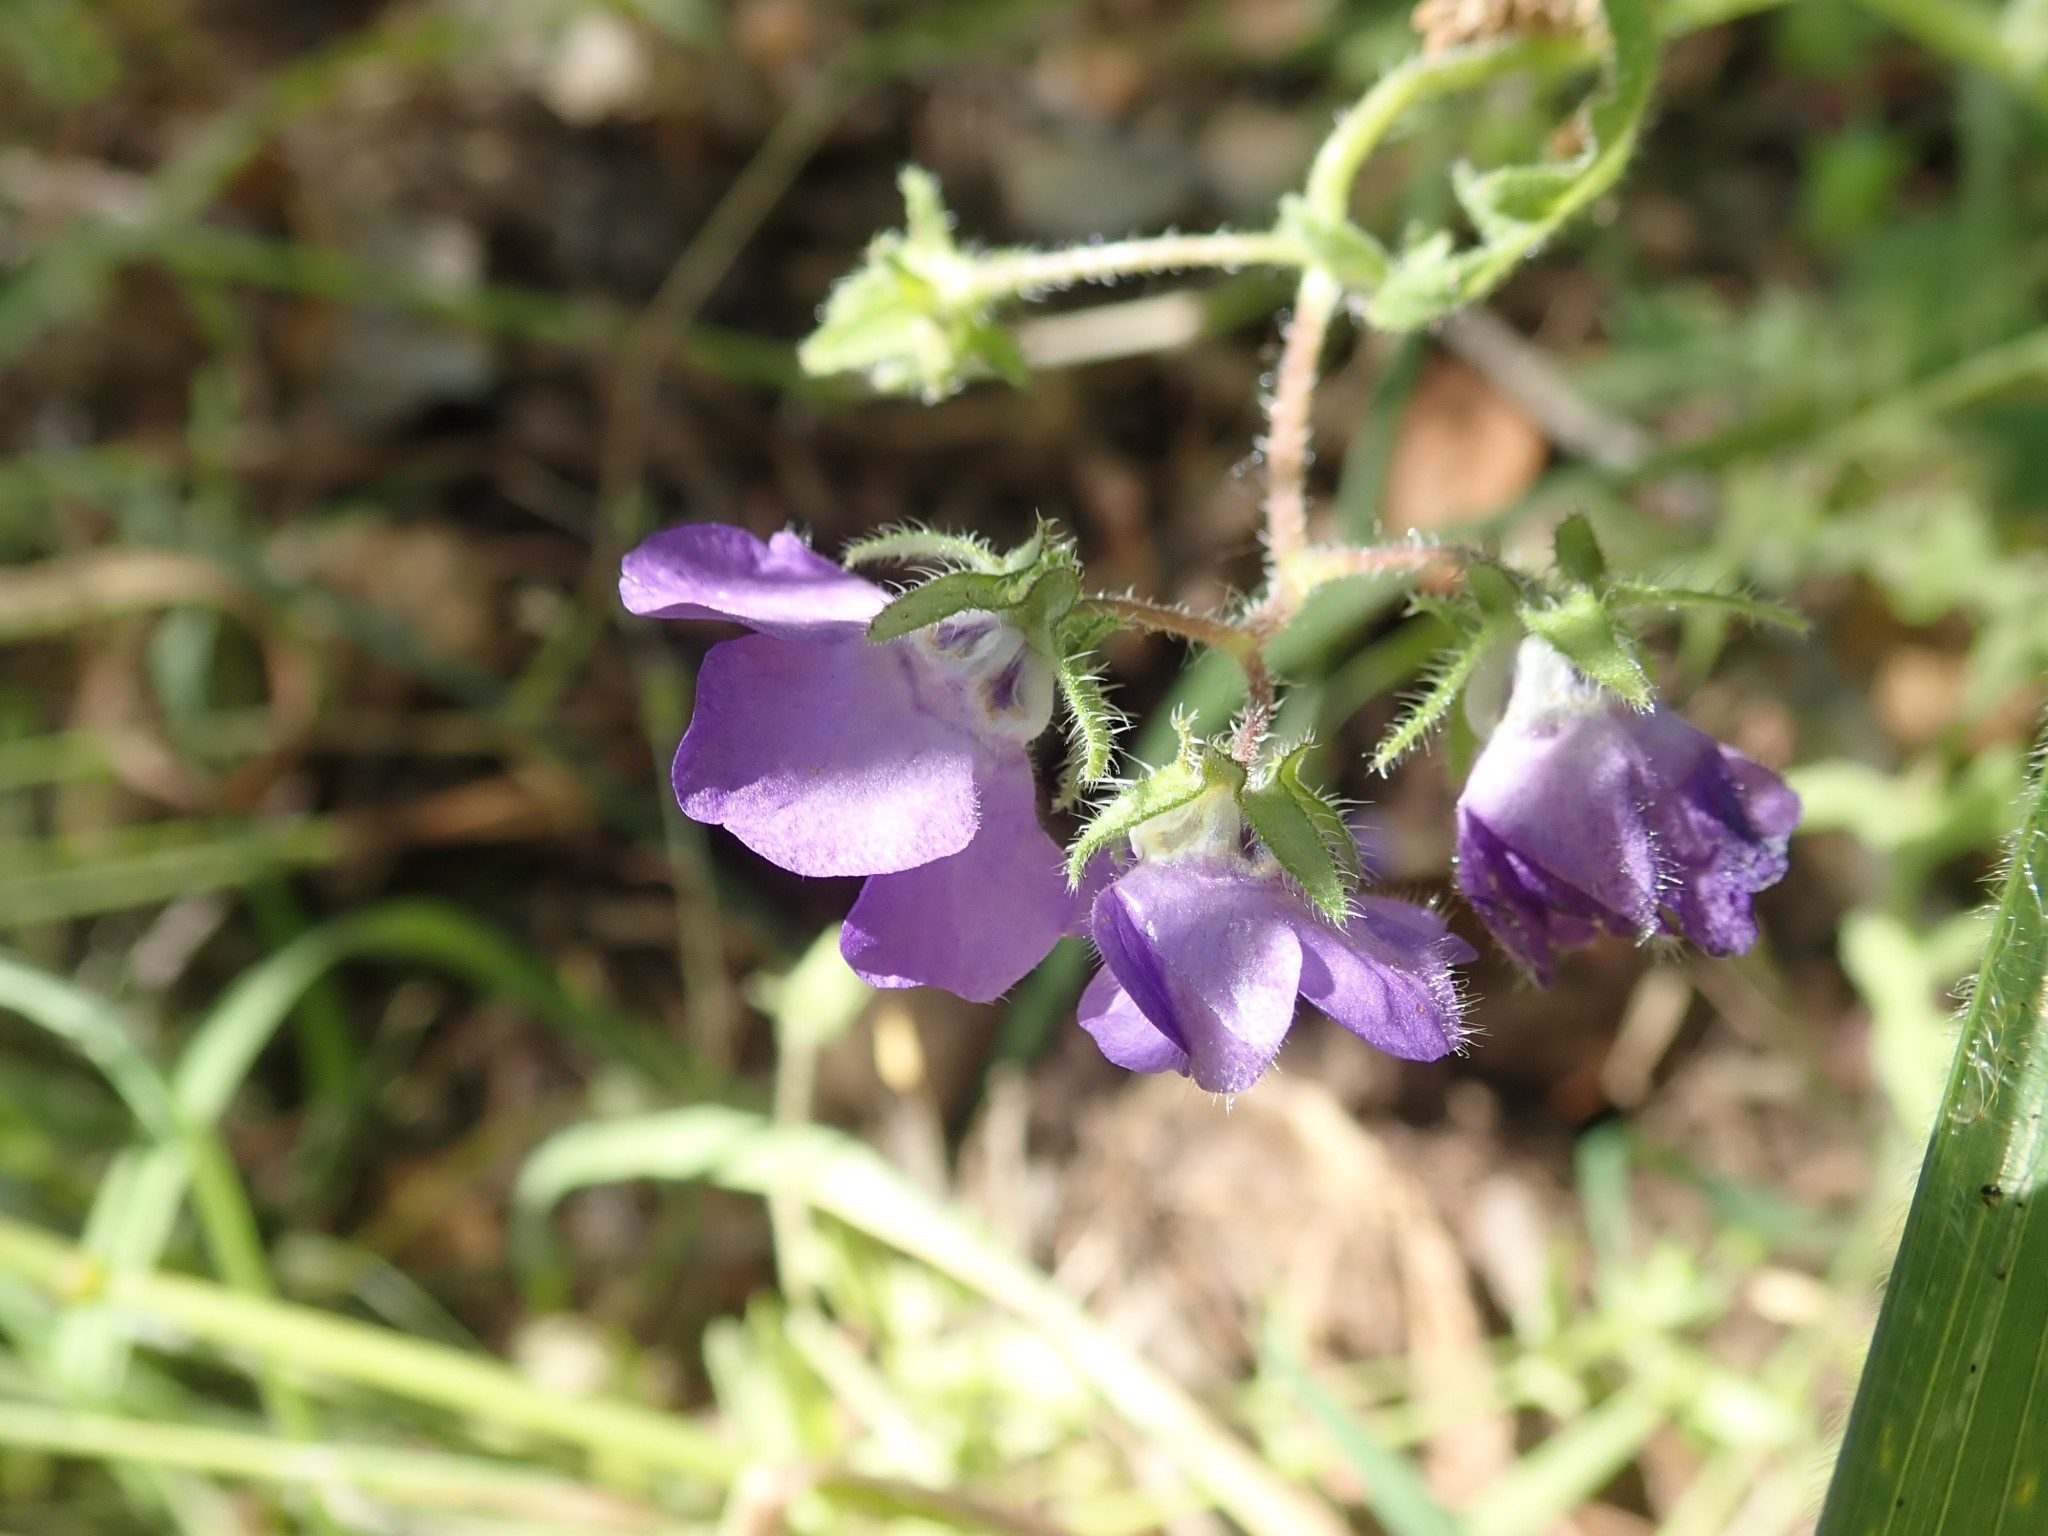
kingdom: Plantae
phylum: Tracheophyta
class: Magnoliopsida
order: Boraginales
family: Hydrophyllaceae
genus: Pholistoma
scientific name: Pholistoma auritum
